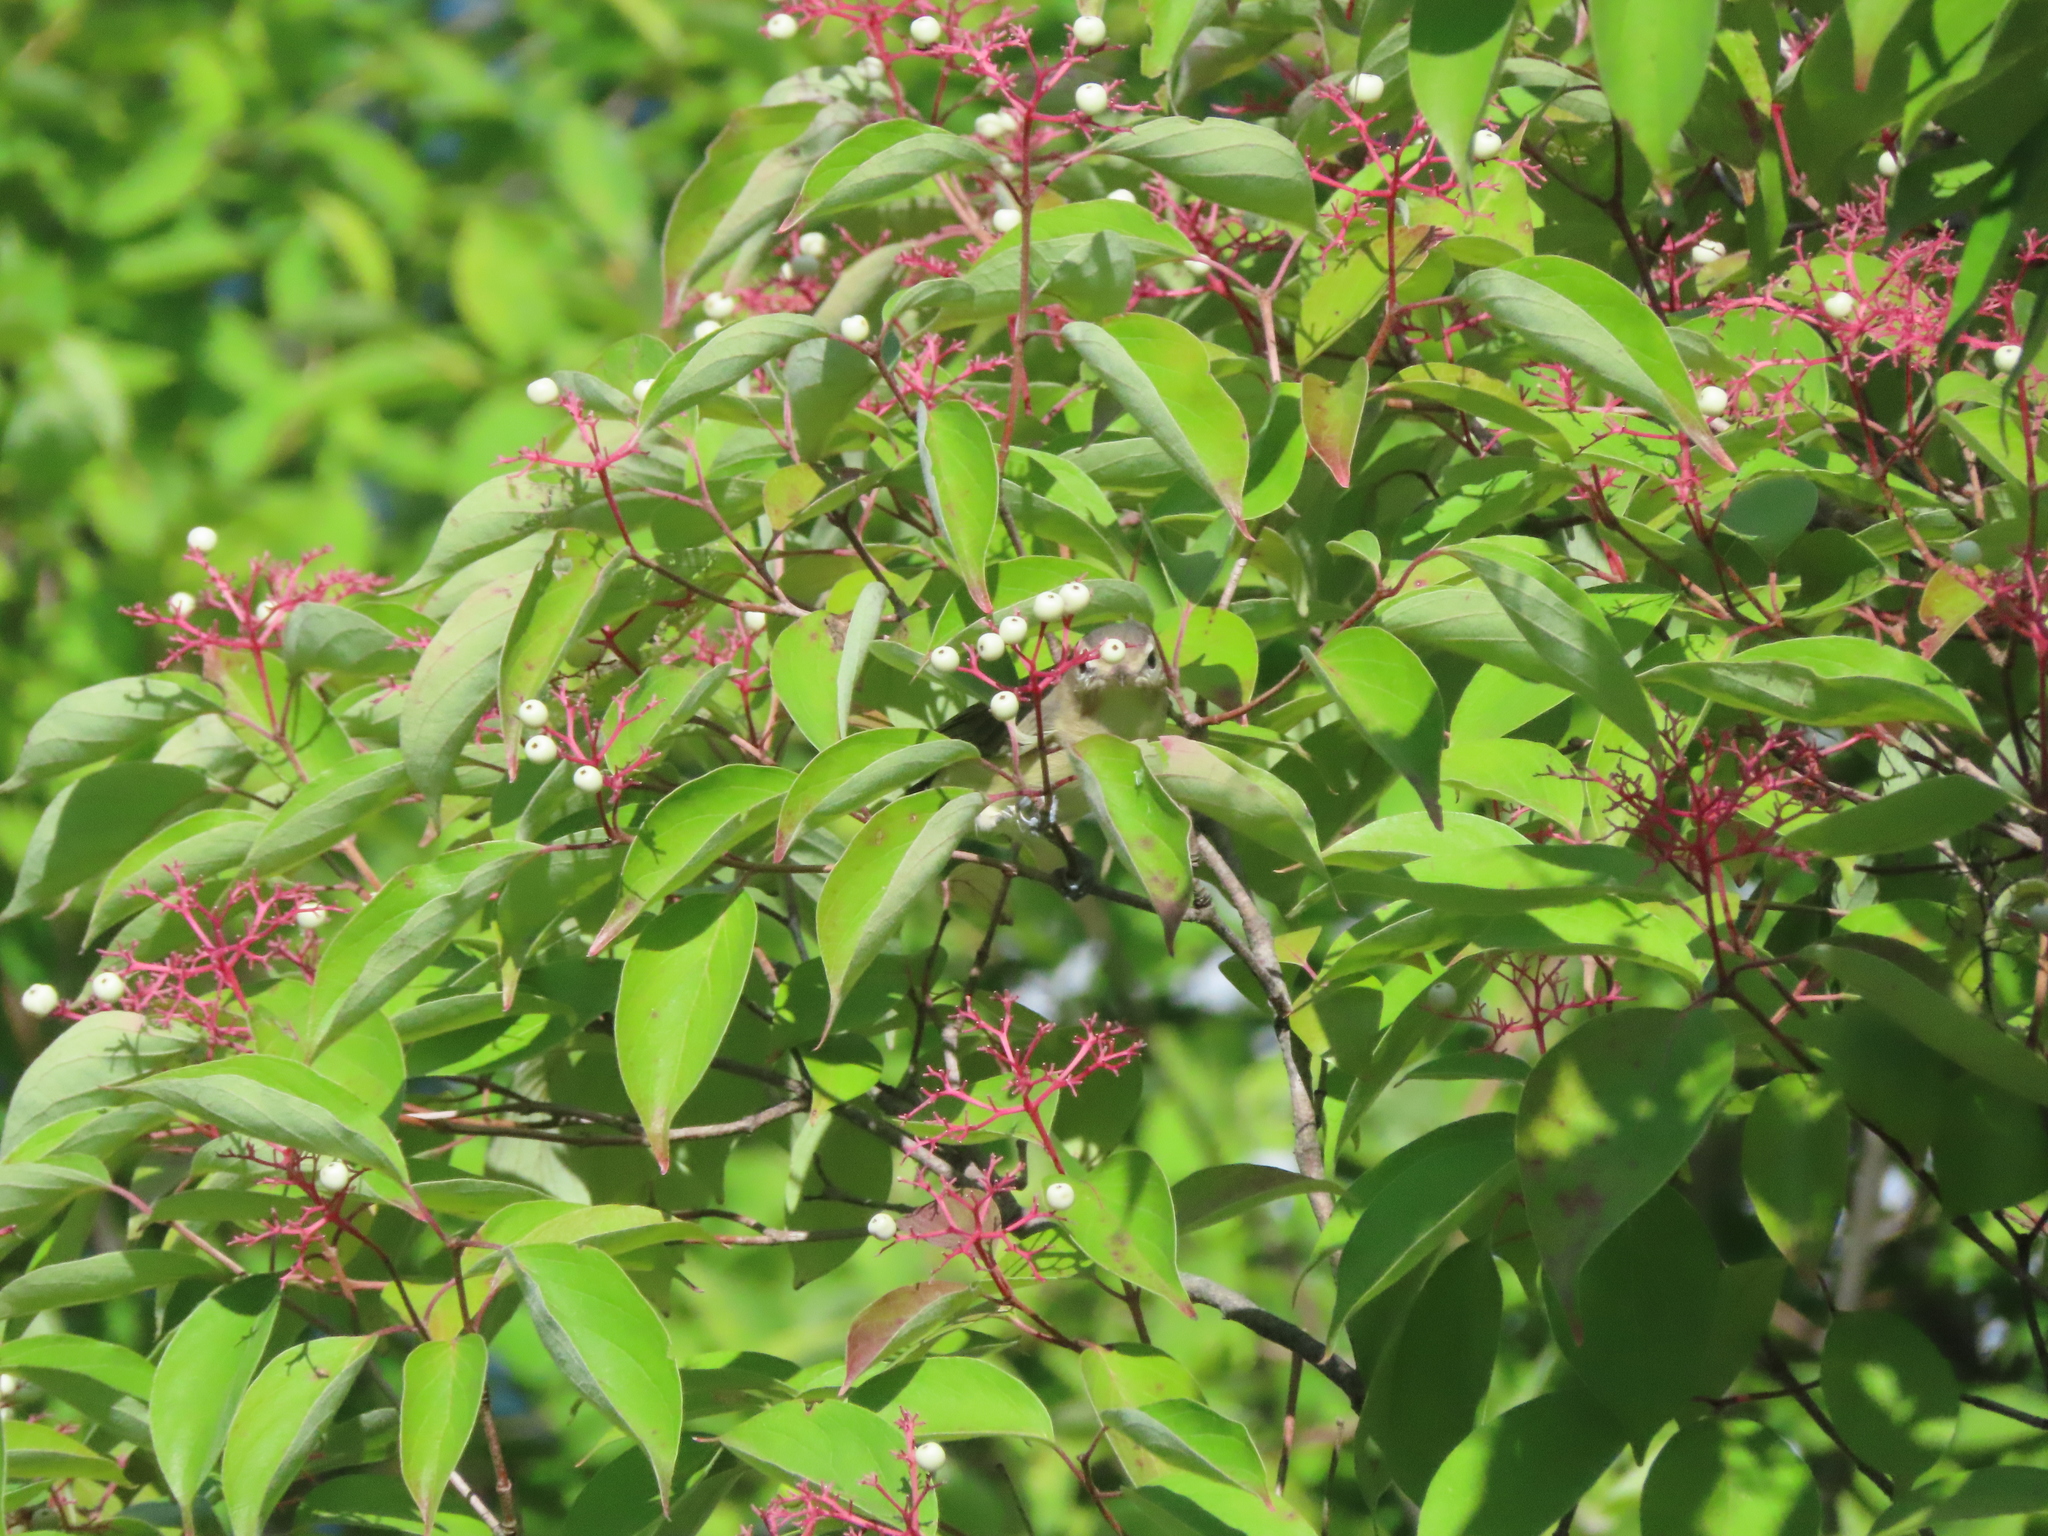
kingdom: Animalia
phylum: Chordata
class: Aves
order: Passeriformes
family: Vireonidae
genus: Vireo
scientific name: Vireo gilvus
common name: Warbling vireo
